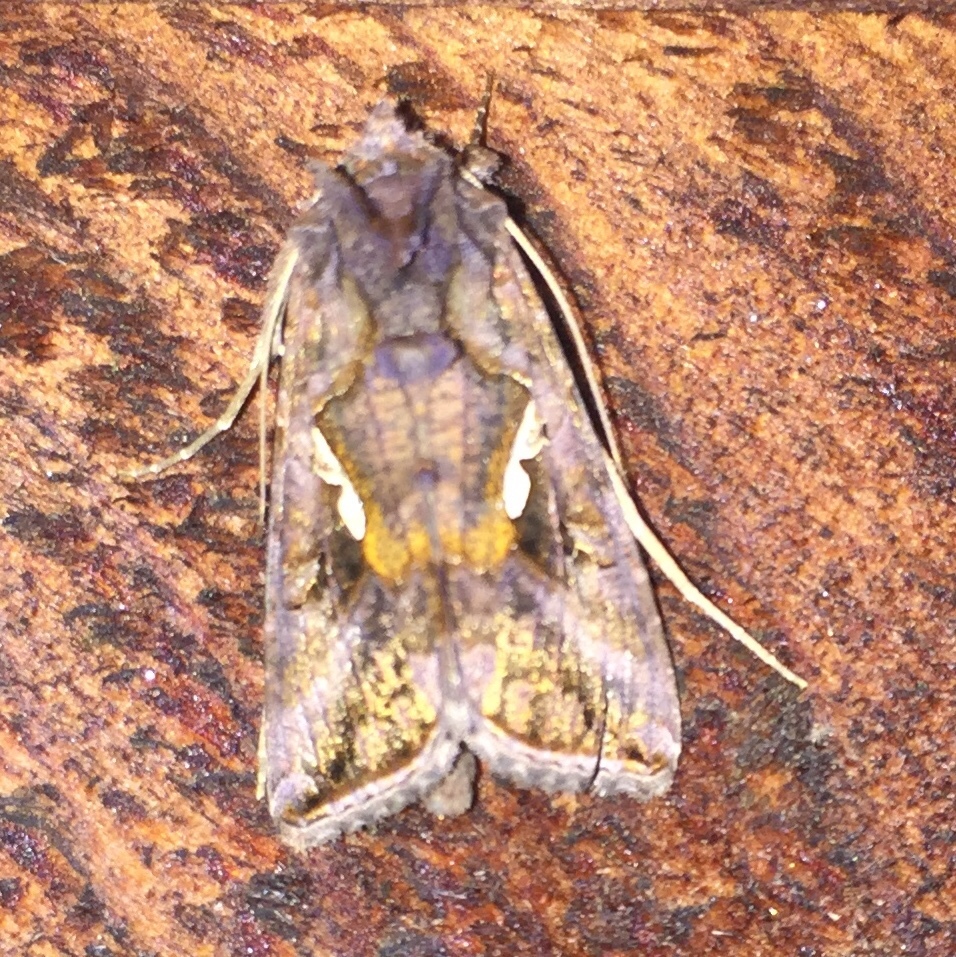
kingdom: Animalia
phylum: Arthropoda
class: Insecta
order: Lepidoptera
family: Noctuidae
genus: Autographa
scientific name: Autographa precationis
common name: Common looper moth
